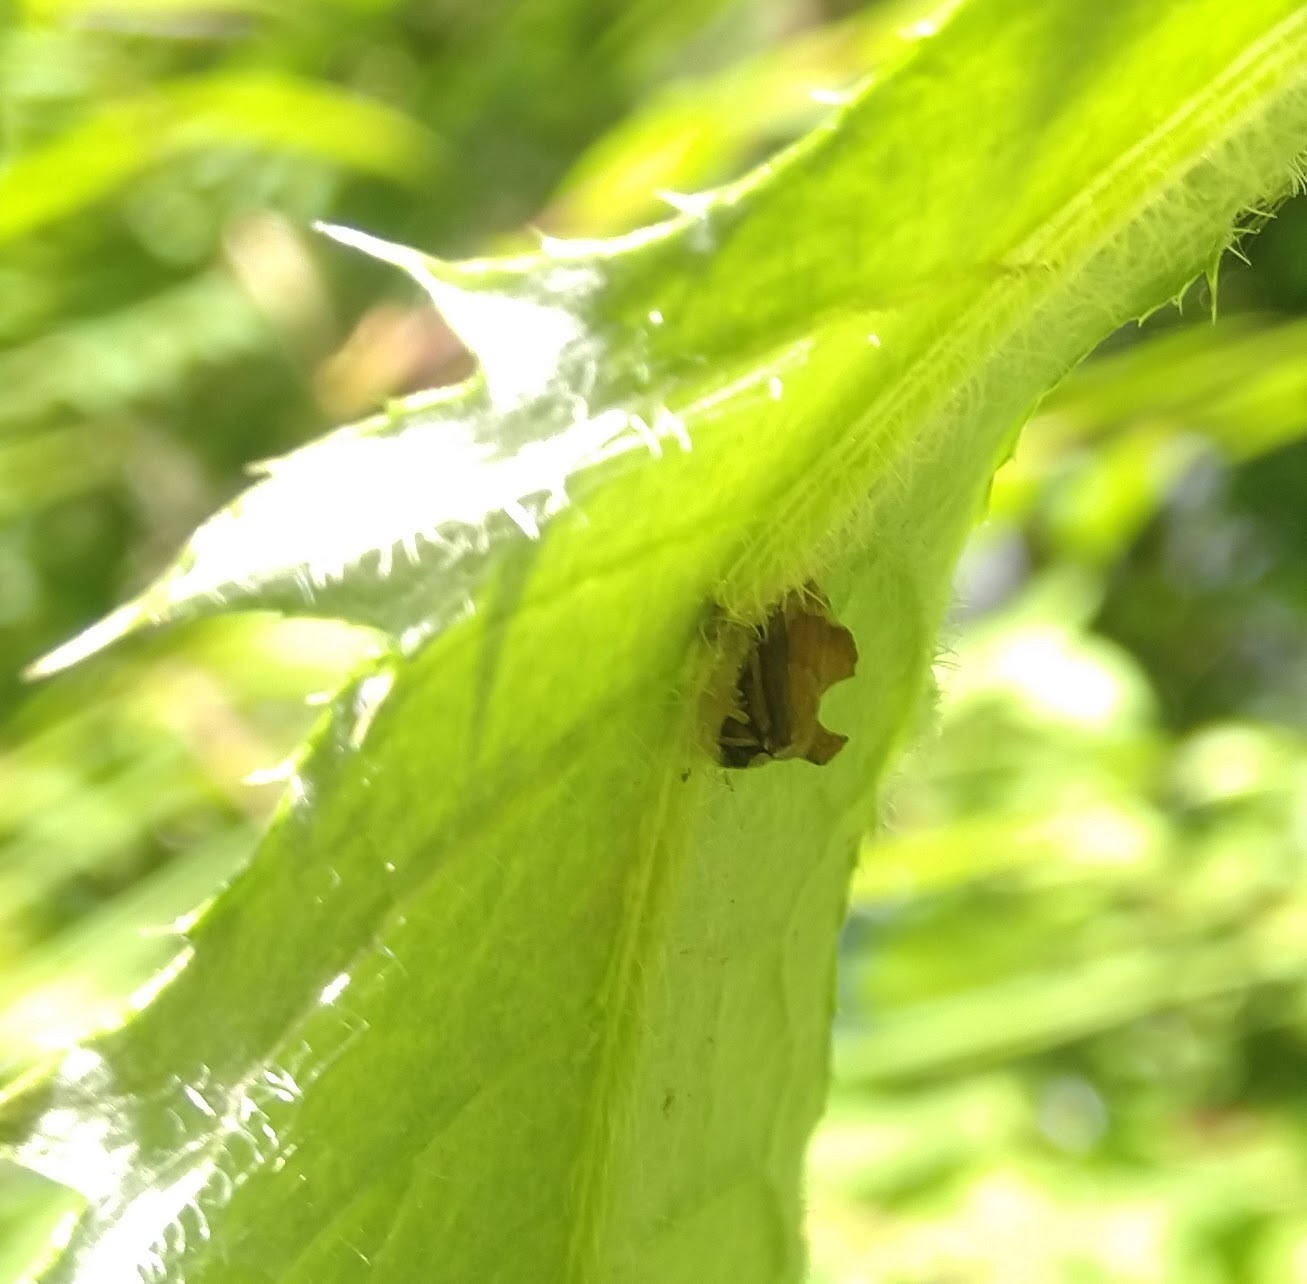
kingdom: Animalia
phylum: Arthropoda
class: Insecta
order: Hemiptera
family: Membracidae
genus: Entylia
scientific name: Entylia carinata
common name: Keeled treehopper
